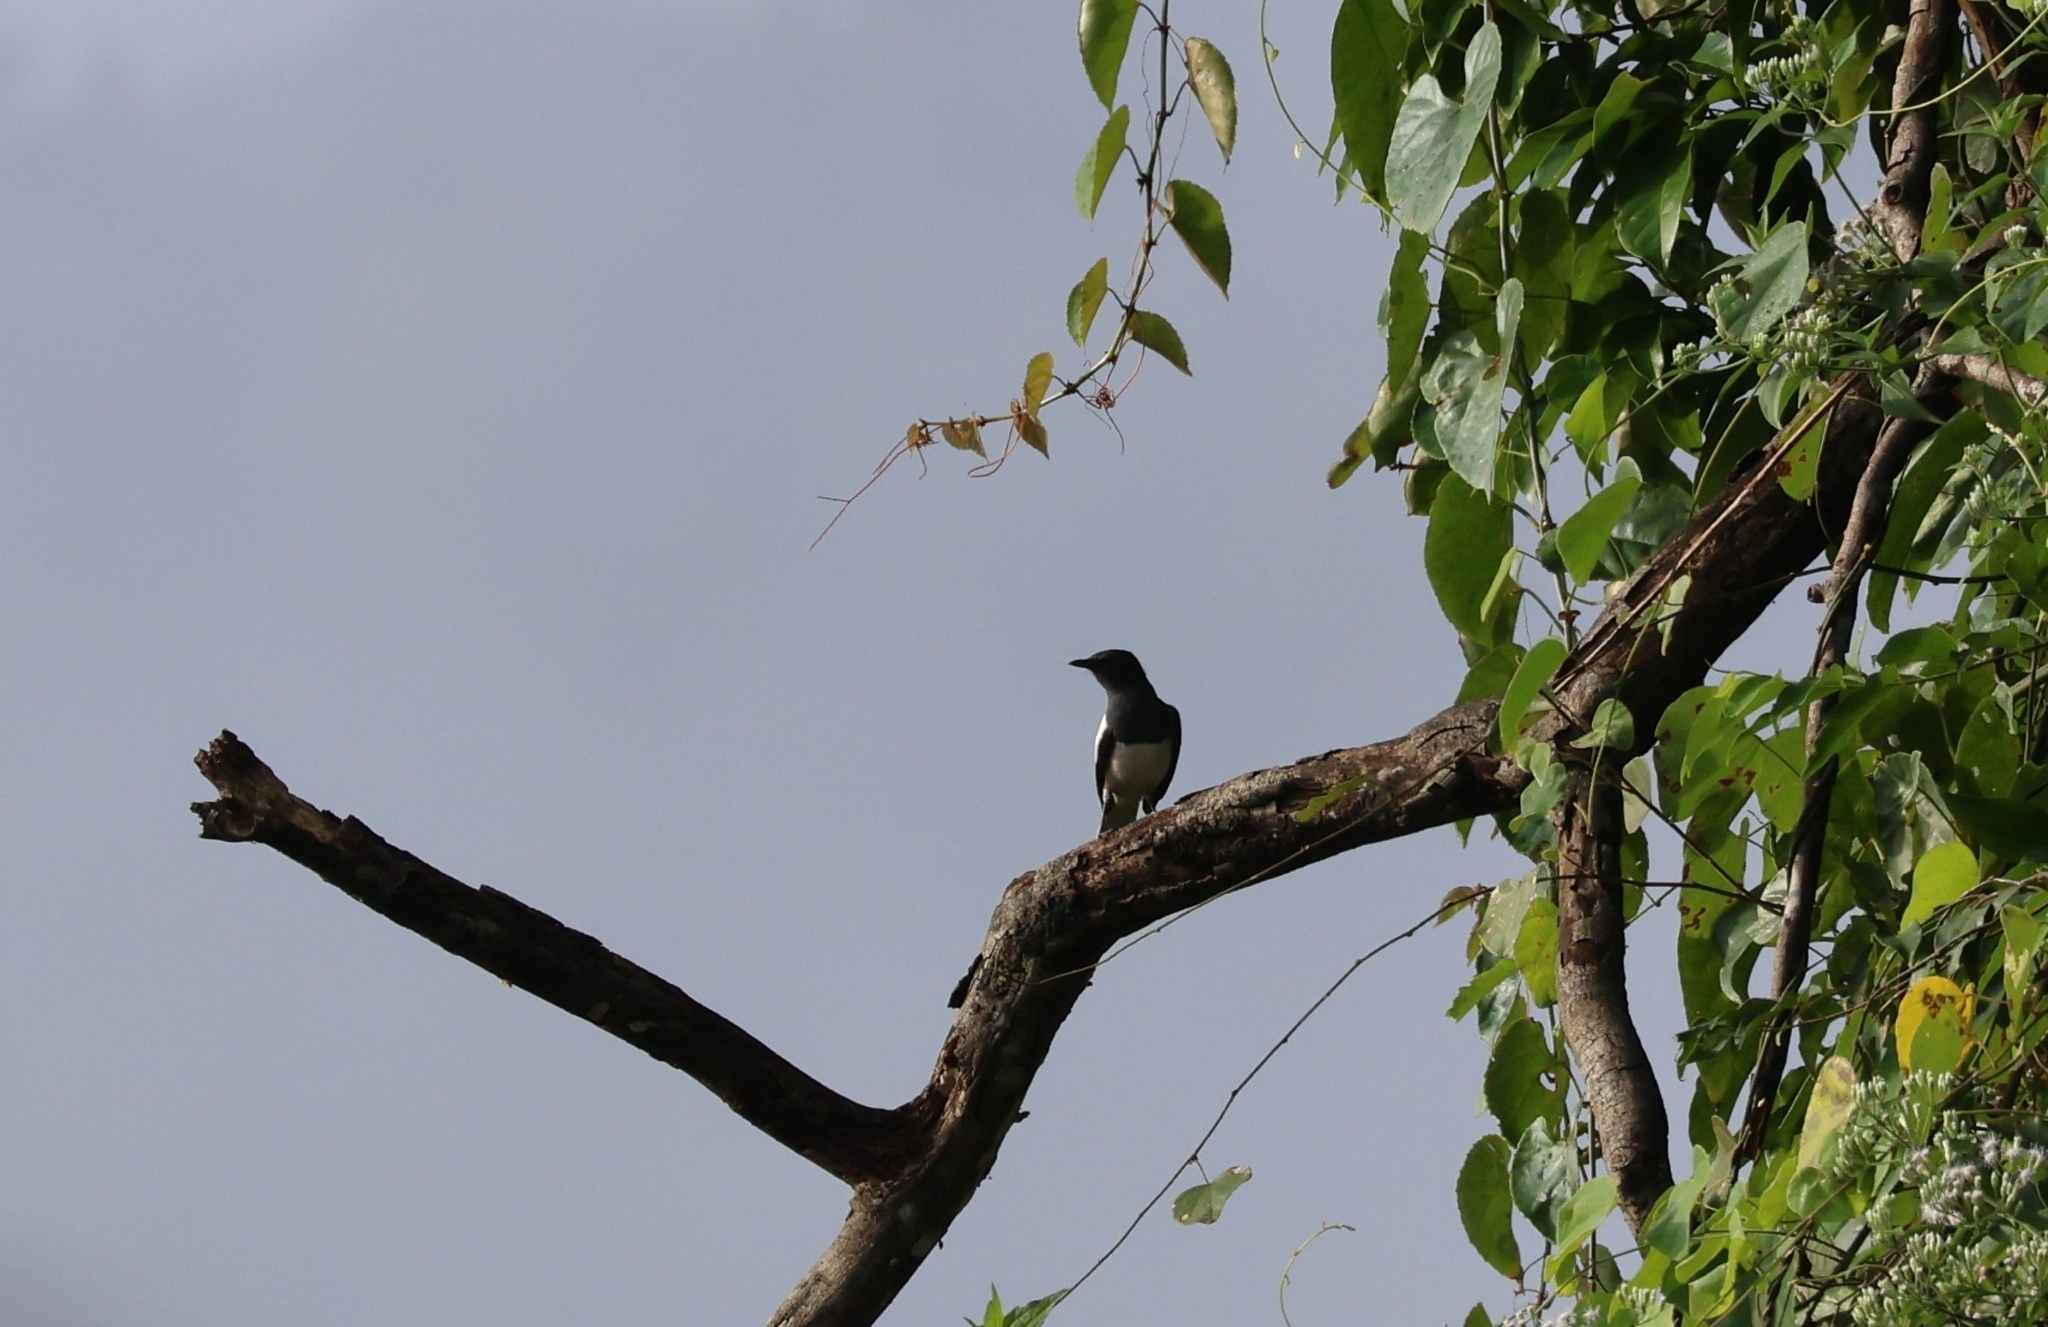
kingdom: Animalia
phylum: Chordata
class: Aves
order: Passeriformes
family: Muscicapidae
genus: Copsychus
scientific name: Copsychus saularis
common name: Oriental magpie-robin
